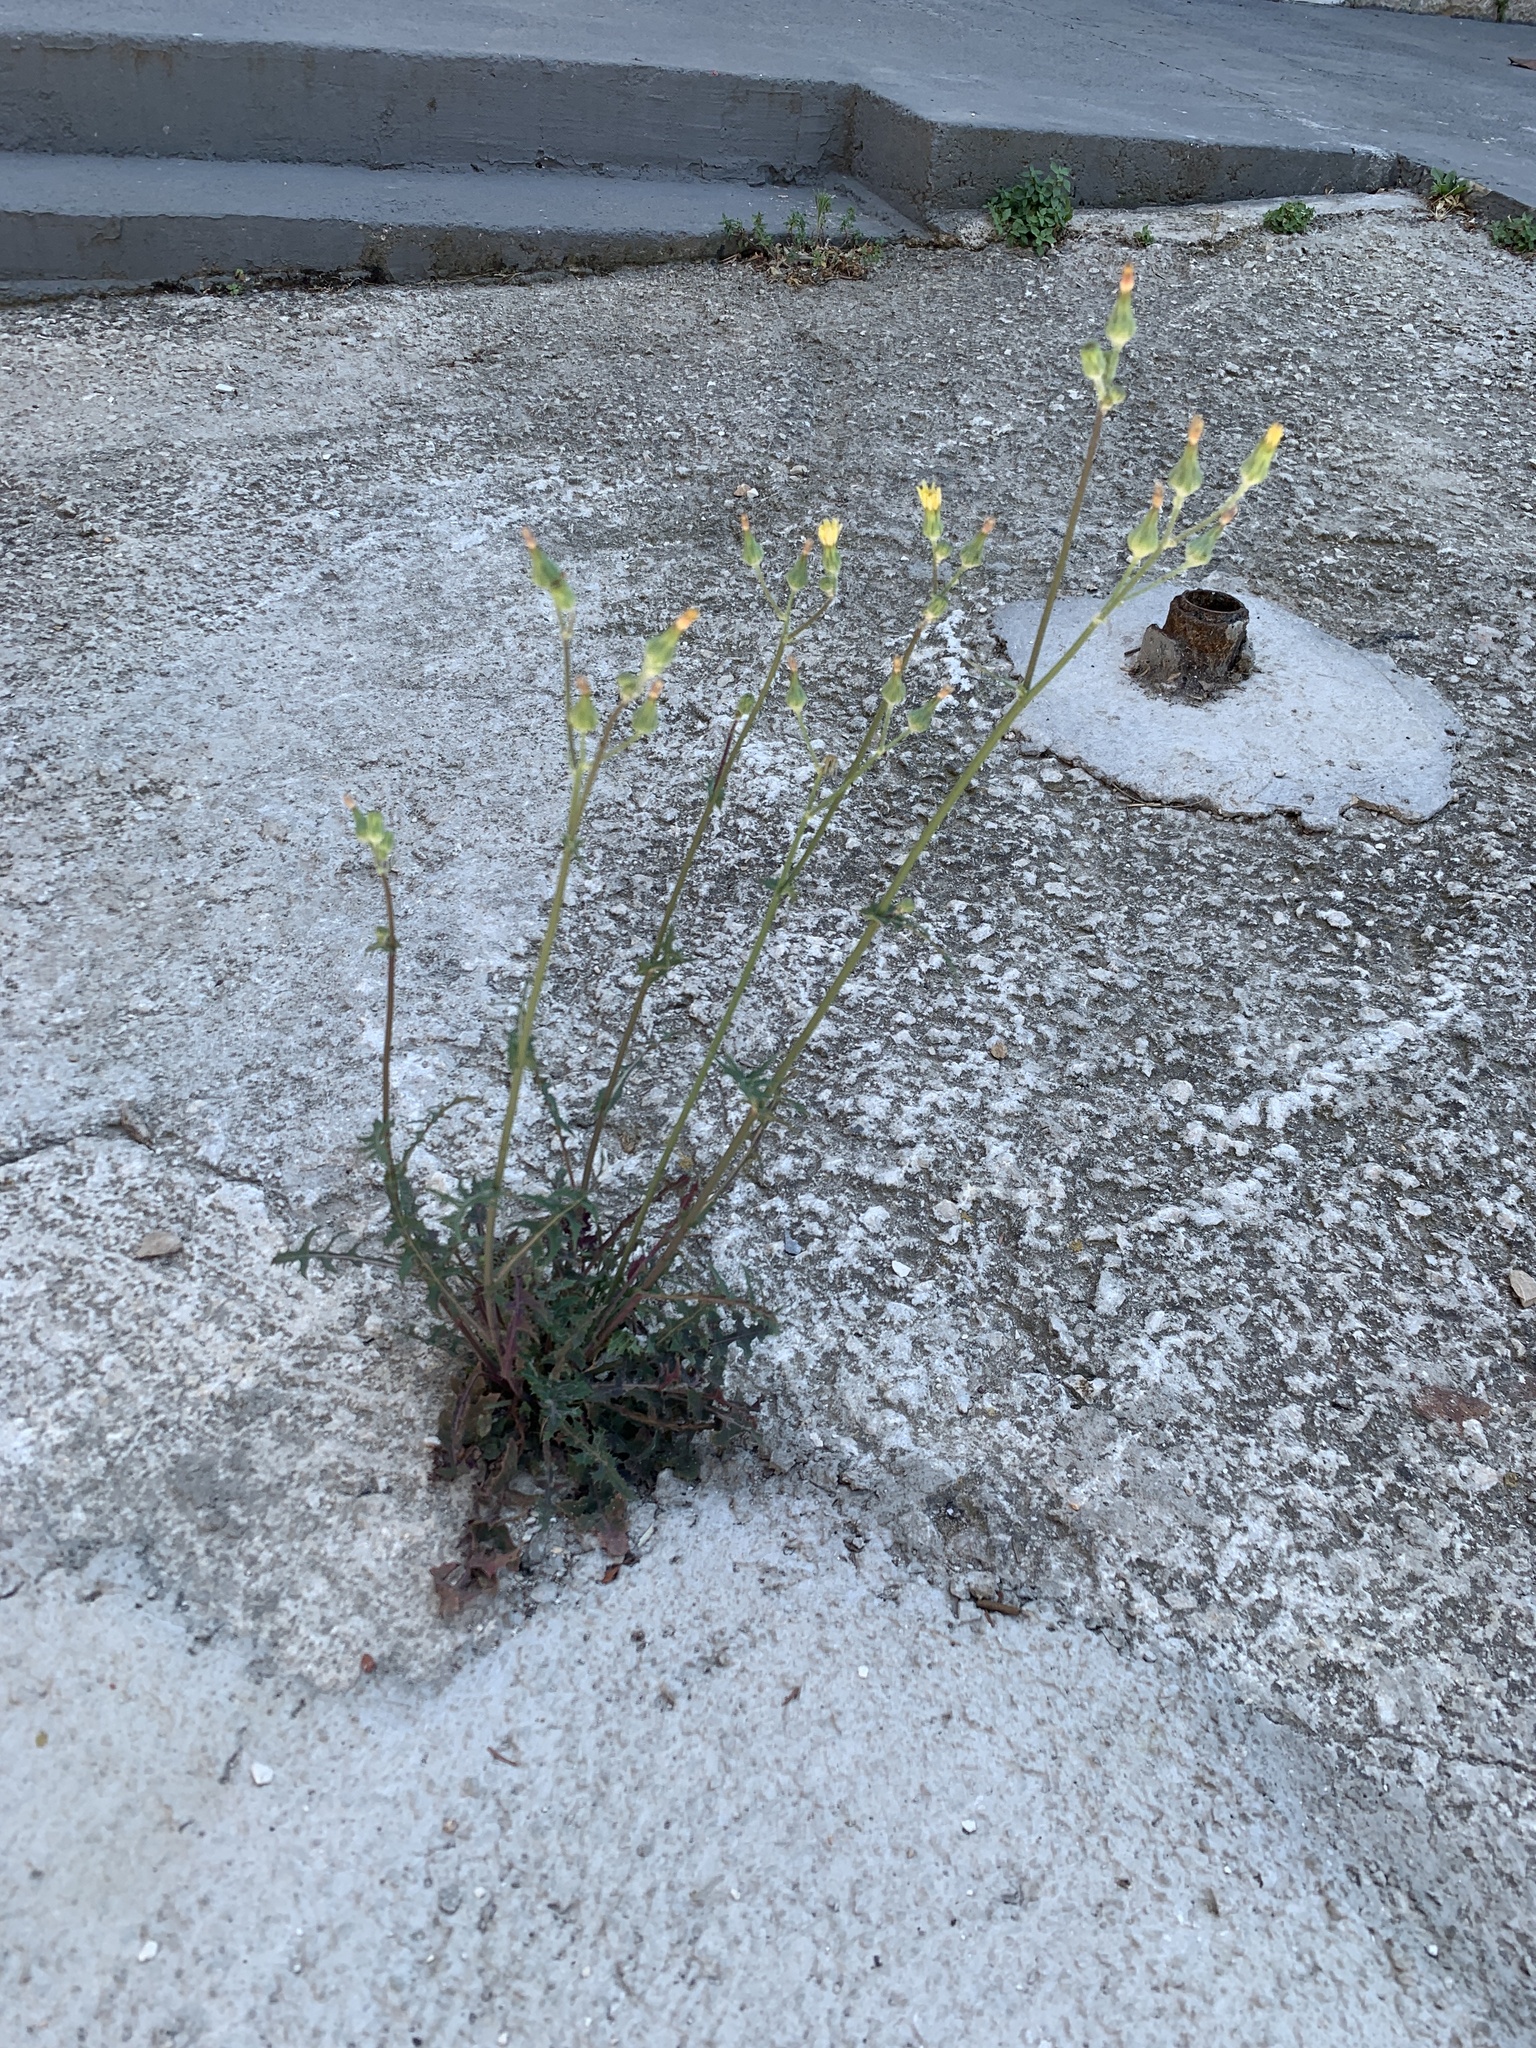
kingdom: Plantae
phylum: Tracheophyta
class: Magnoliopsida
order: Asterales
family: Asteraceae
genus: Sonchus
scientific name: Sonchus oleraceus
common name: Common sowthistle
